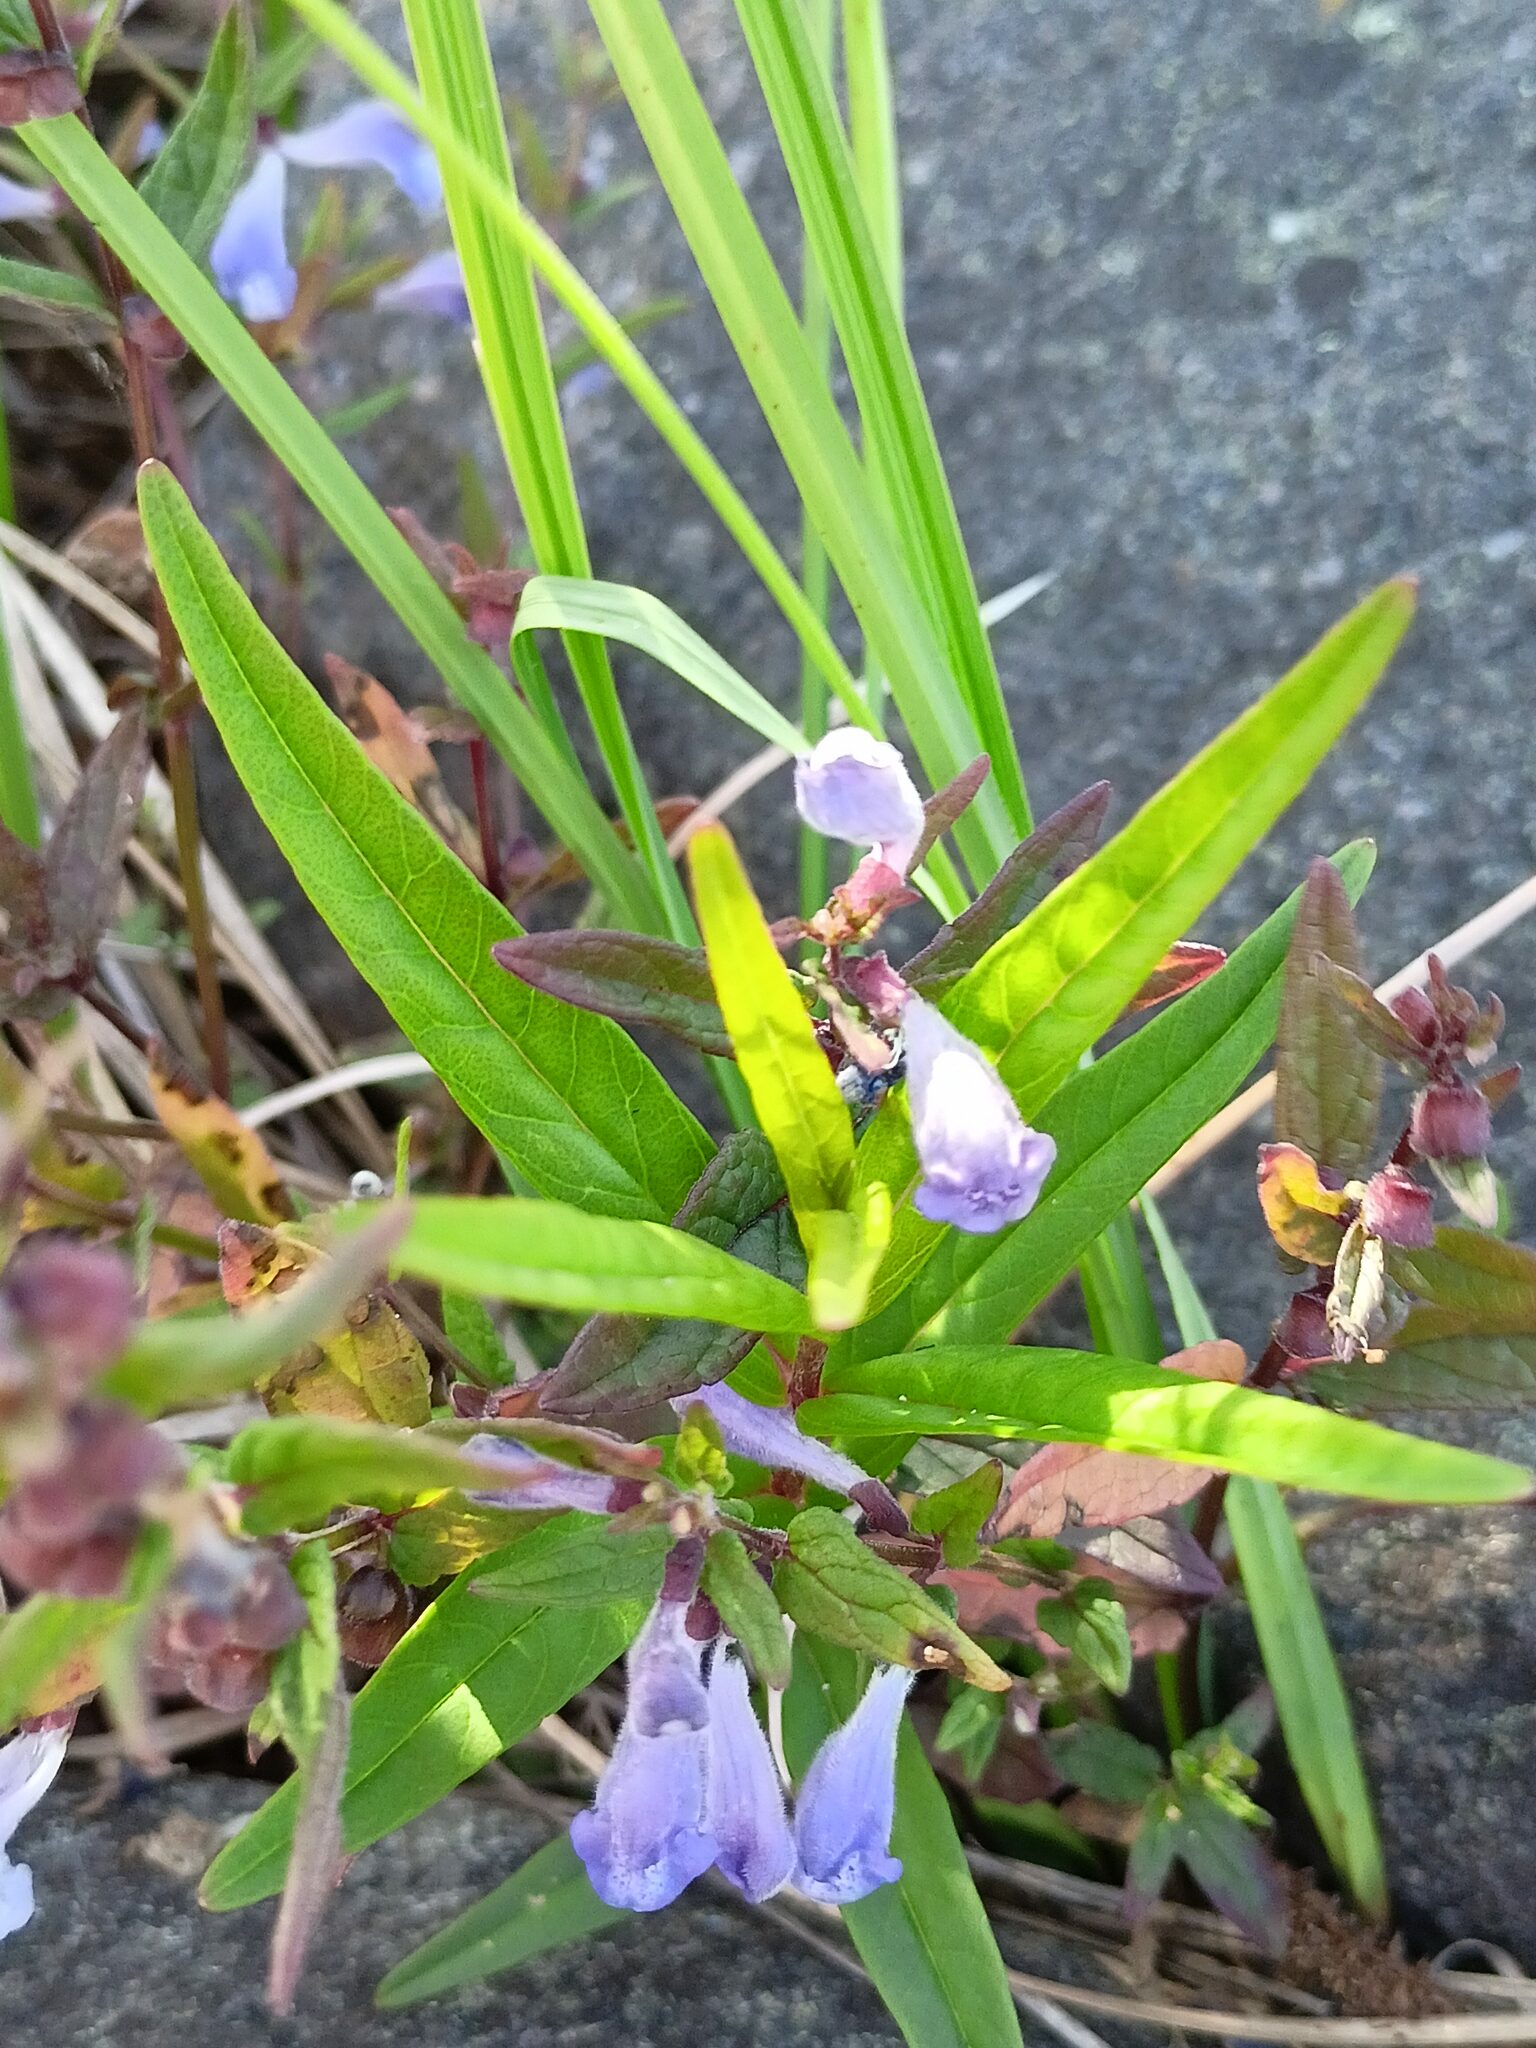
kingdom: Plantae
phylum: Tracheophyta
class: Magnoliopsida
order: Lamiales
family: Lamiaceae
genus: Scutellaria
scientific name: Scutellaria galericulata
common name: Skullcap
